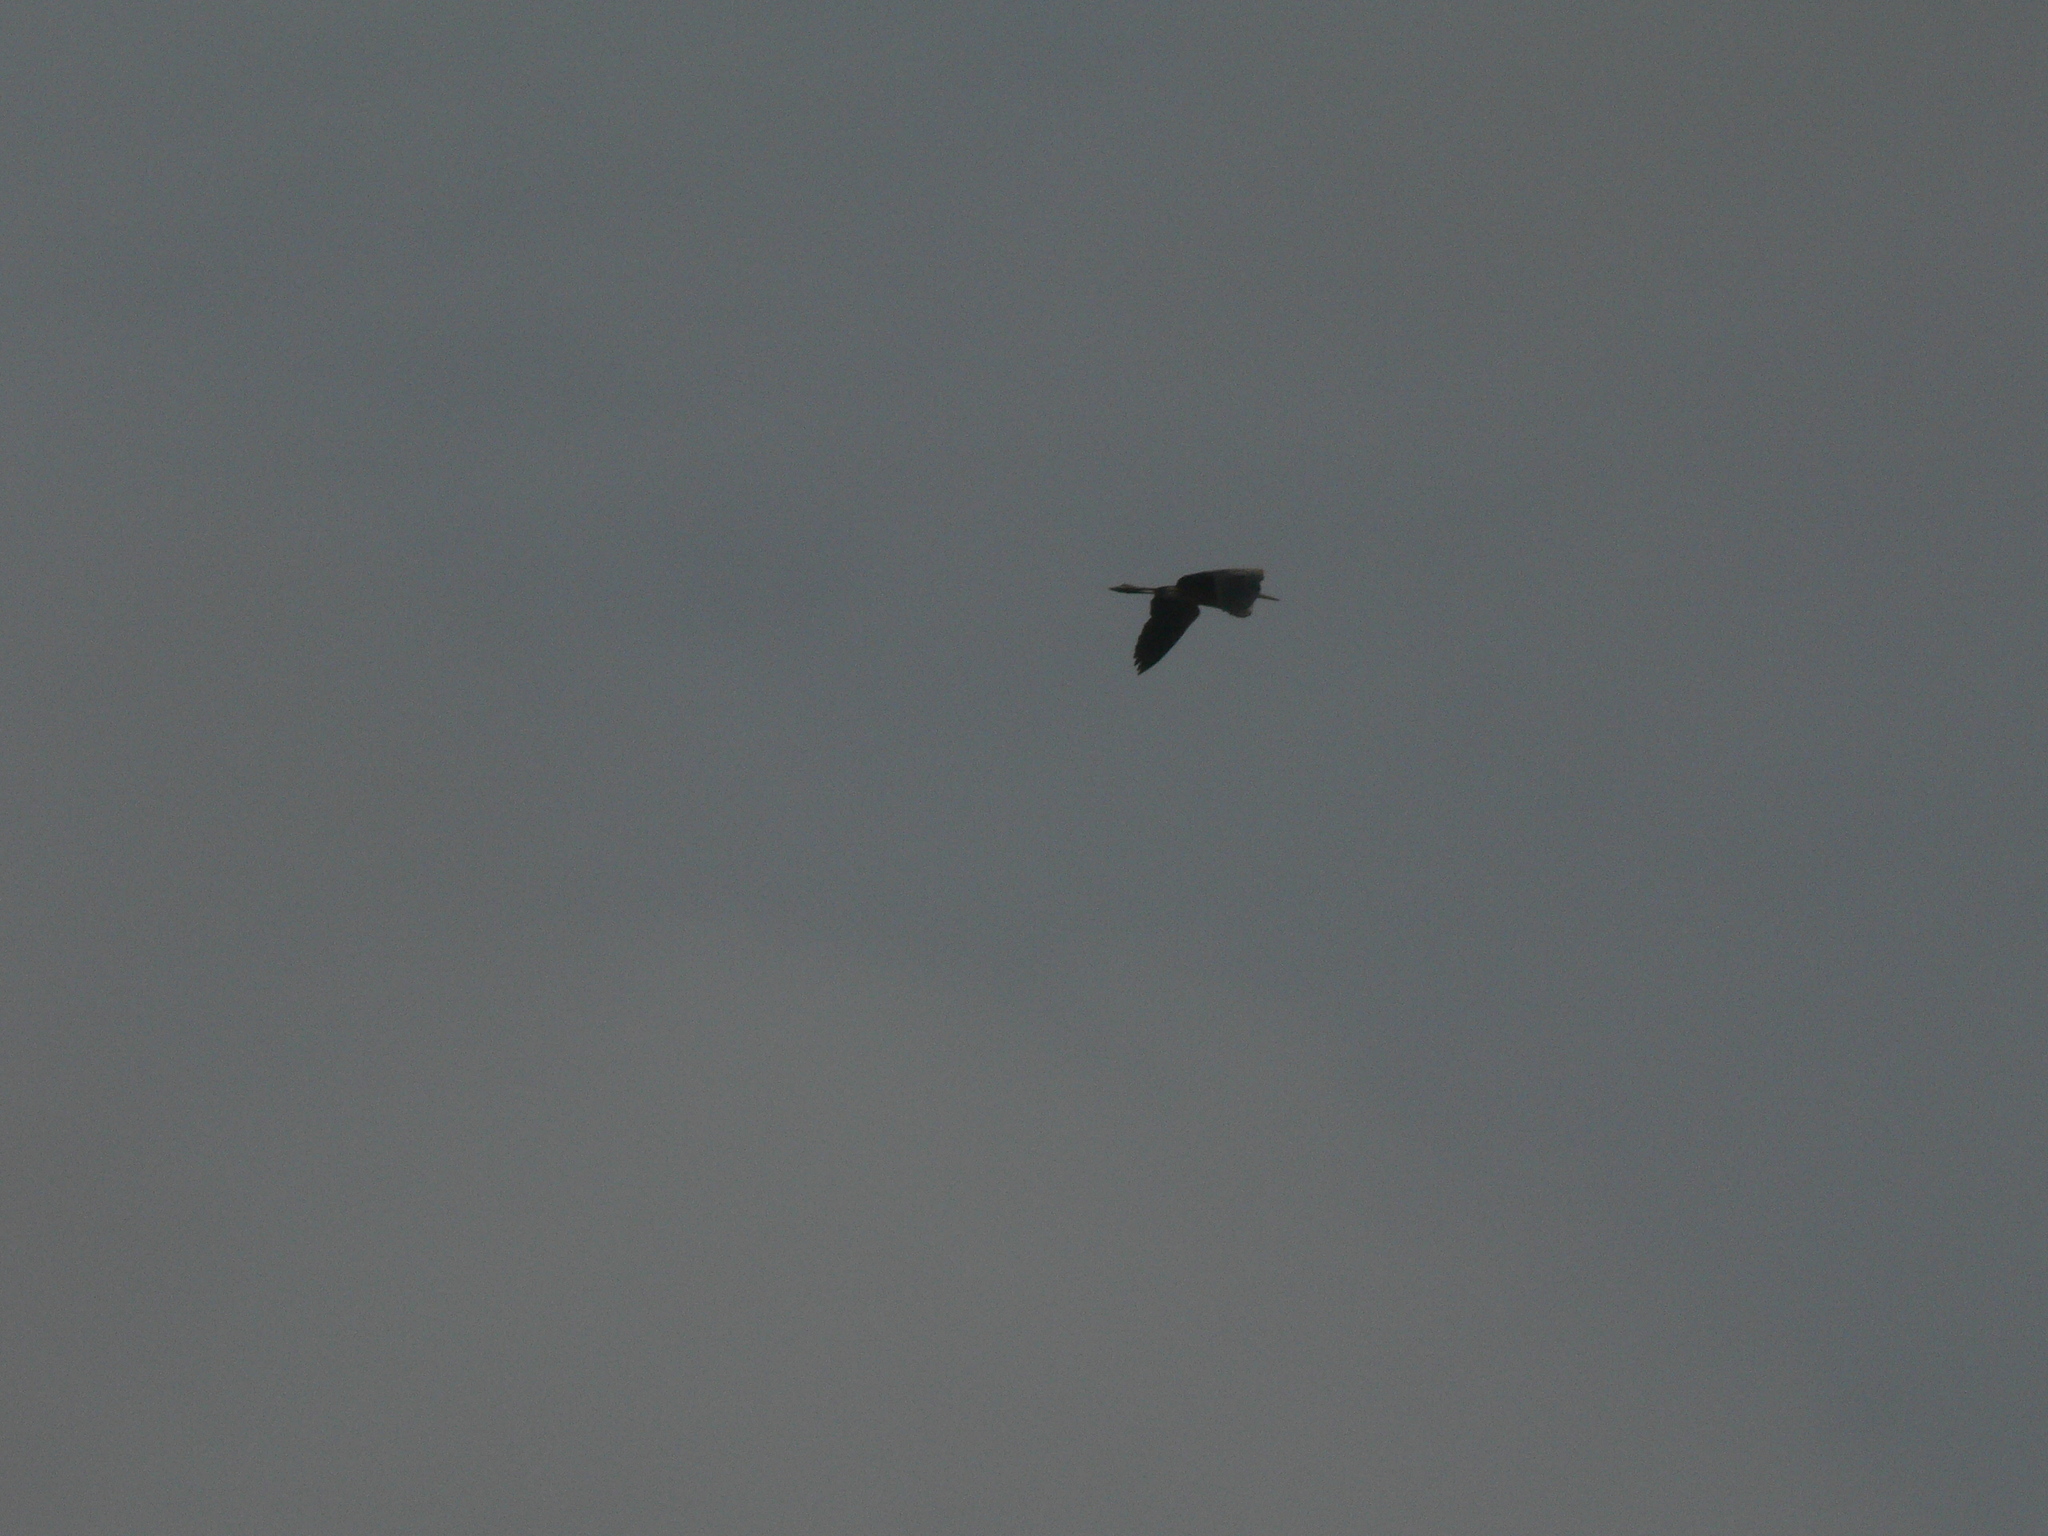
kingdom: Animalia
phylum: Chordata
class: Aves
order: Pelecaniformes
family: Ardeidae
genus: Ardea
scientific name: Ardea purpurea
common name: Purple heron
